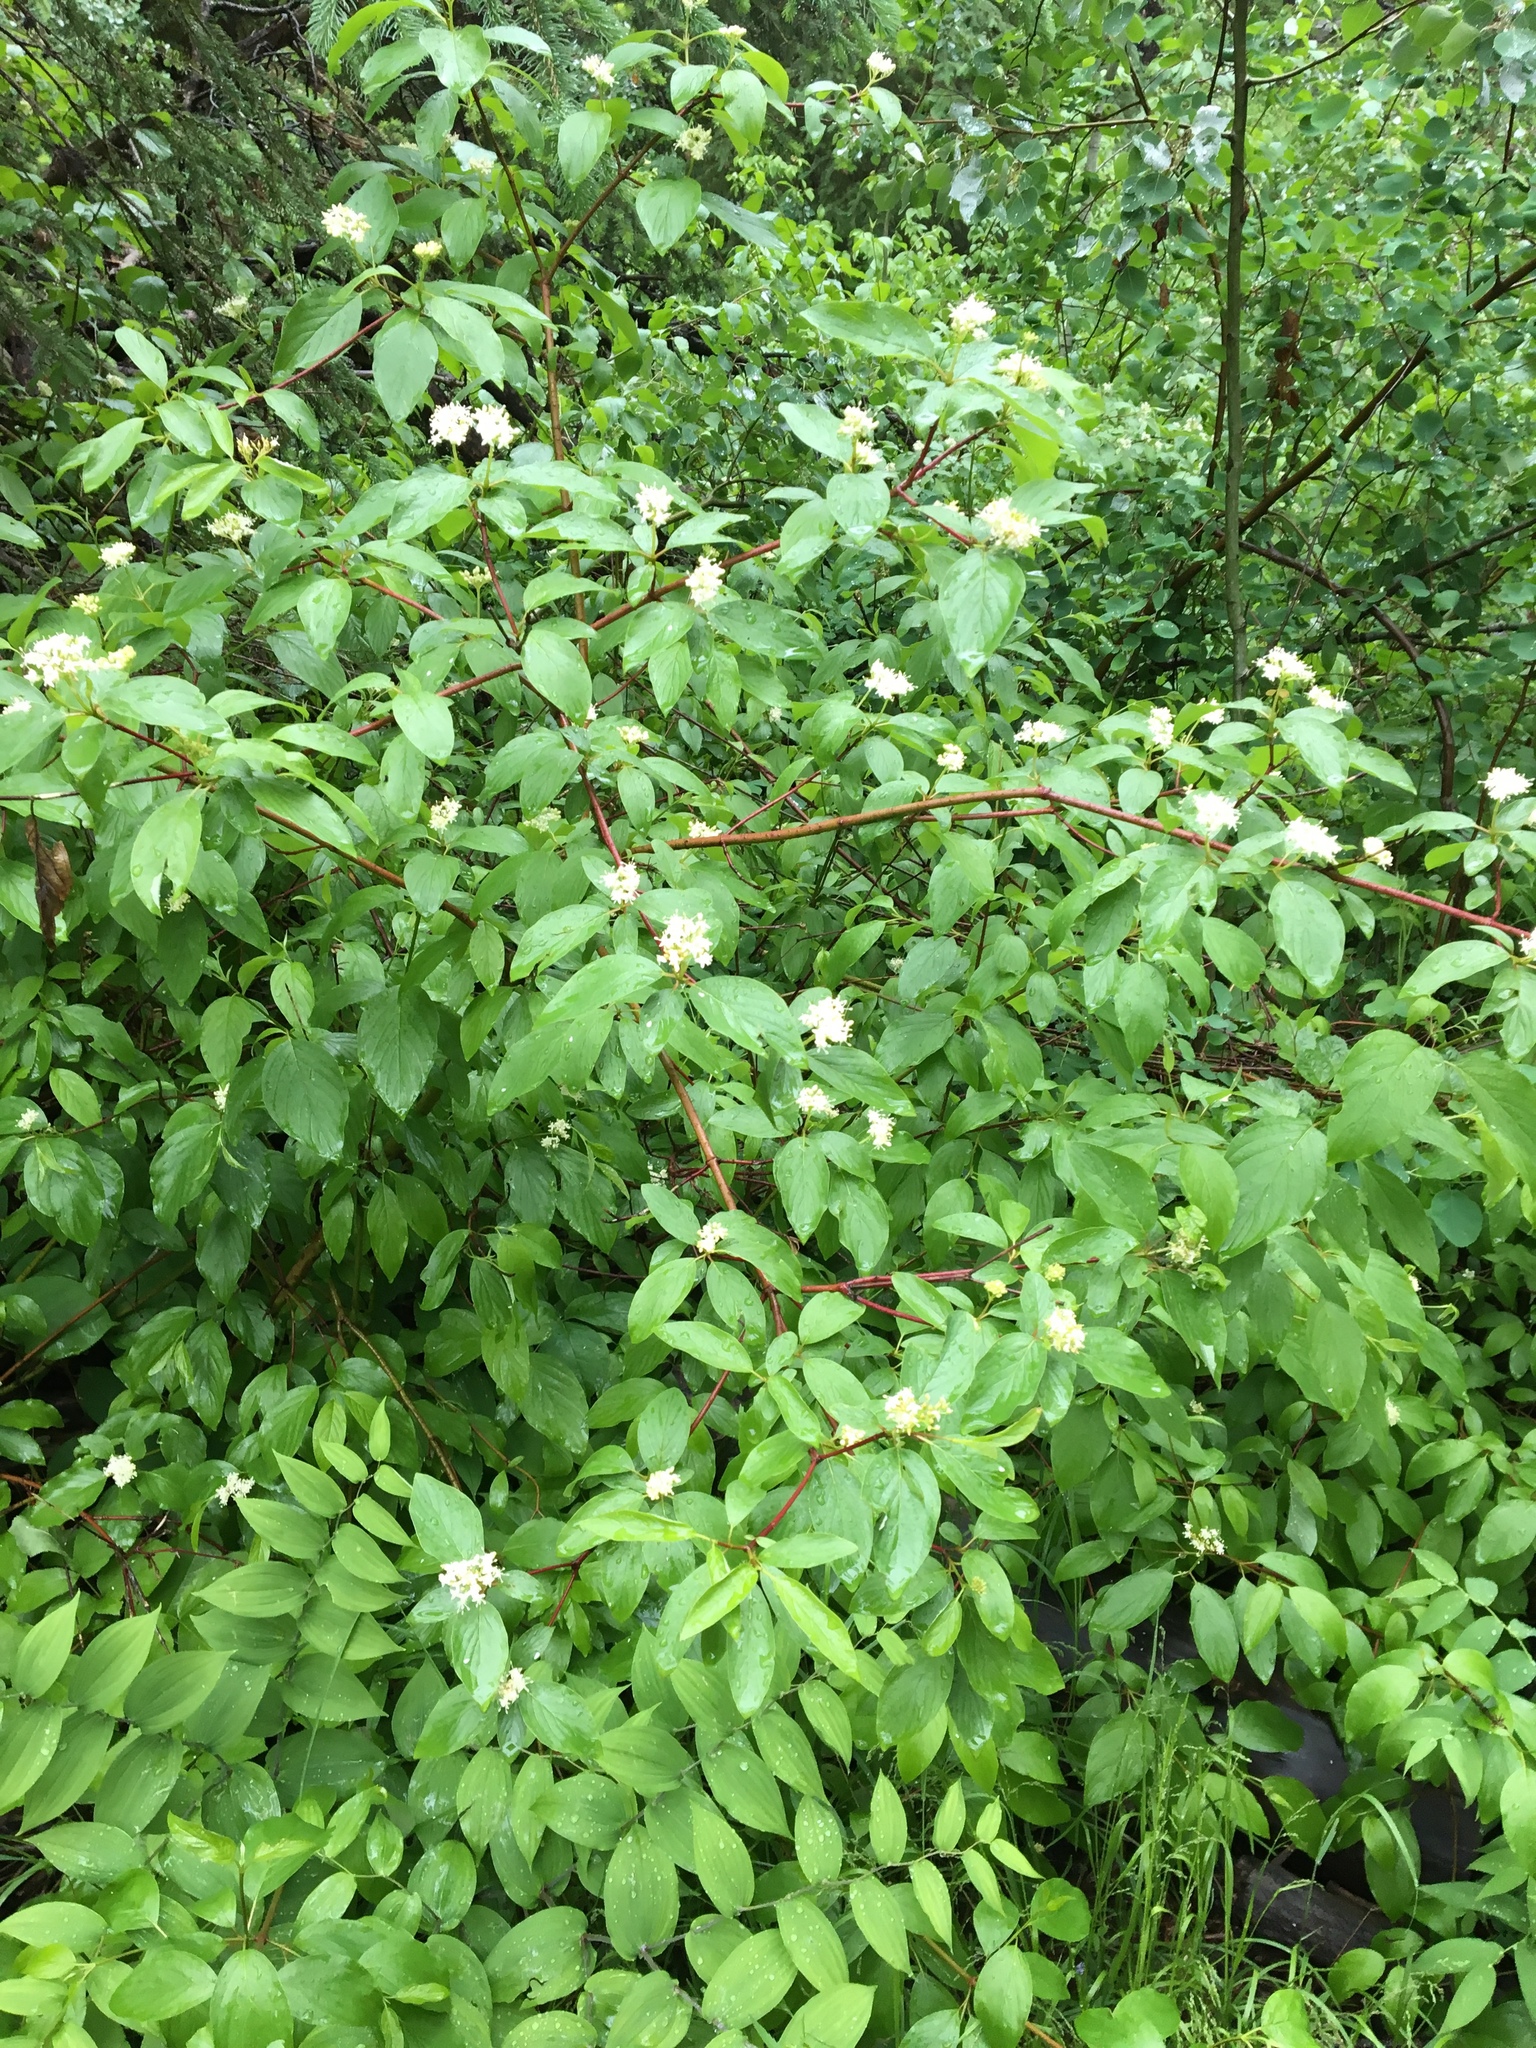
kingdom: Plantae
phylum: Tracheophyta
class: Magnoliopsida
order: Cornales
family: Cornaceae
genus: Cornus
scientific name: Cornus sericea
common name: Red-osier dogwood
